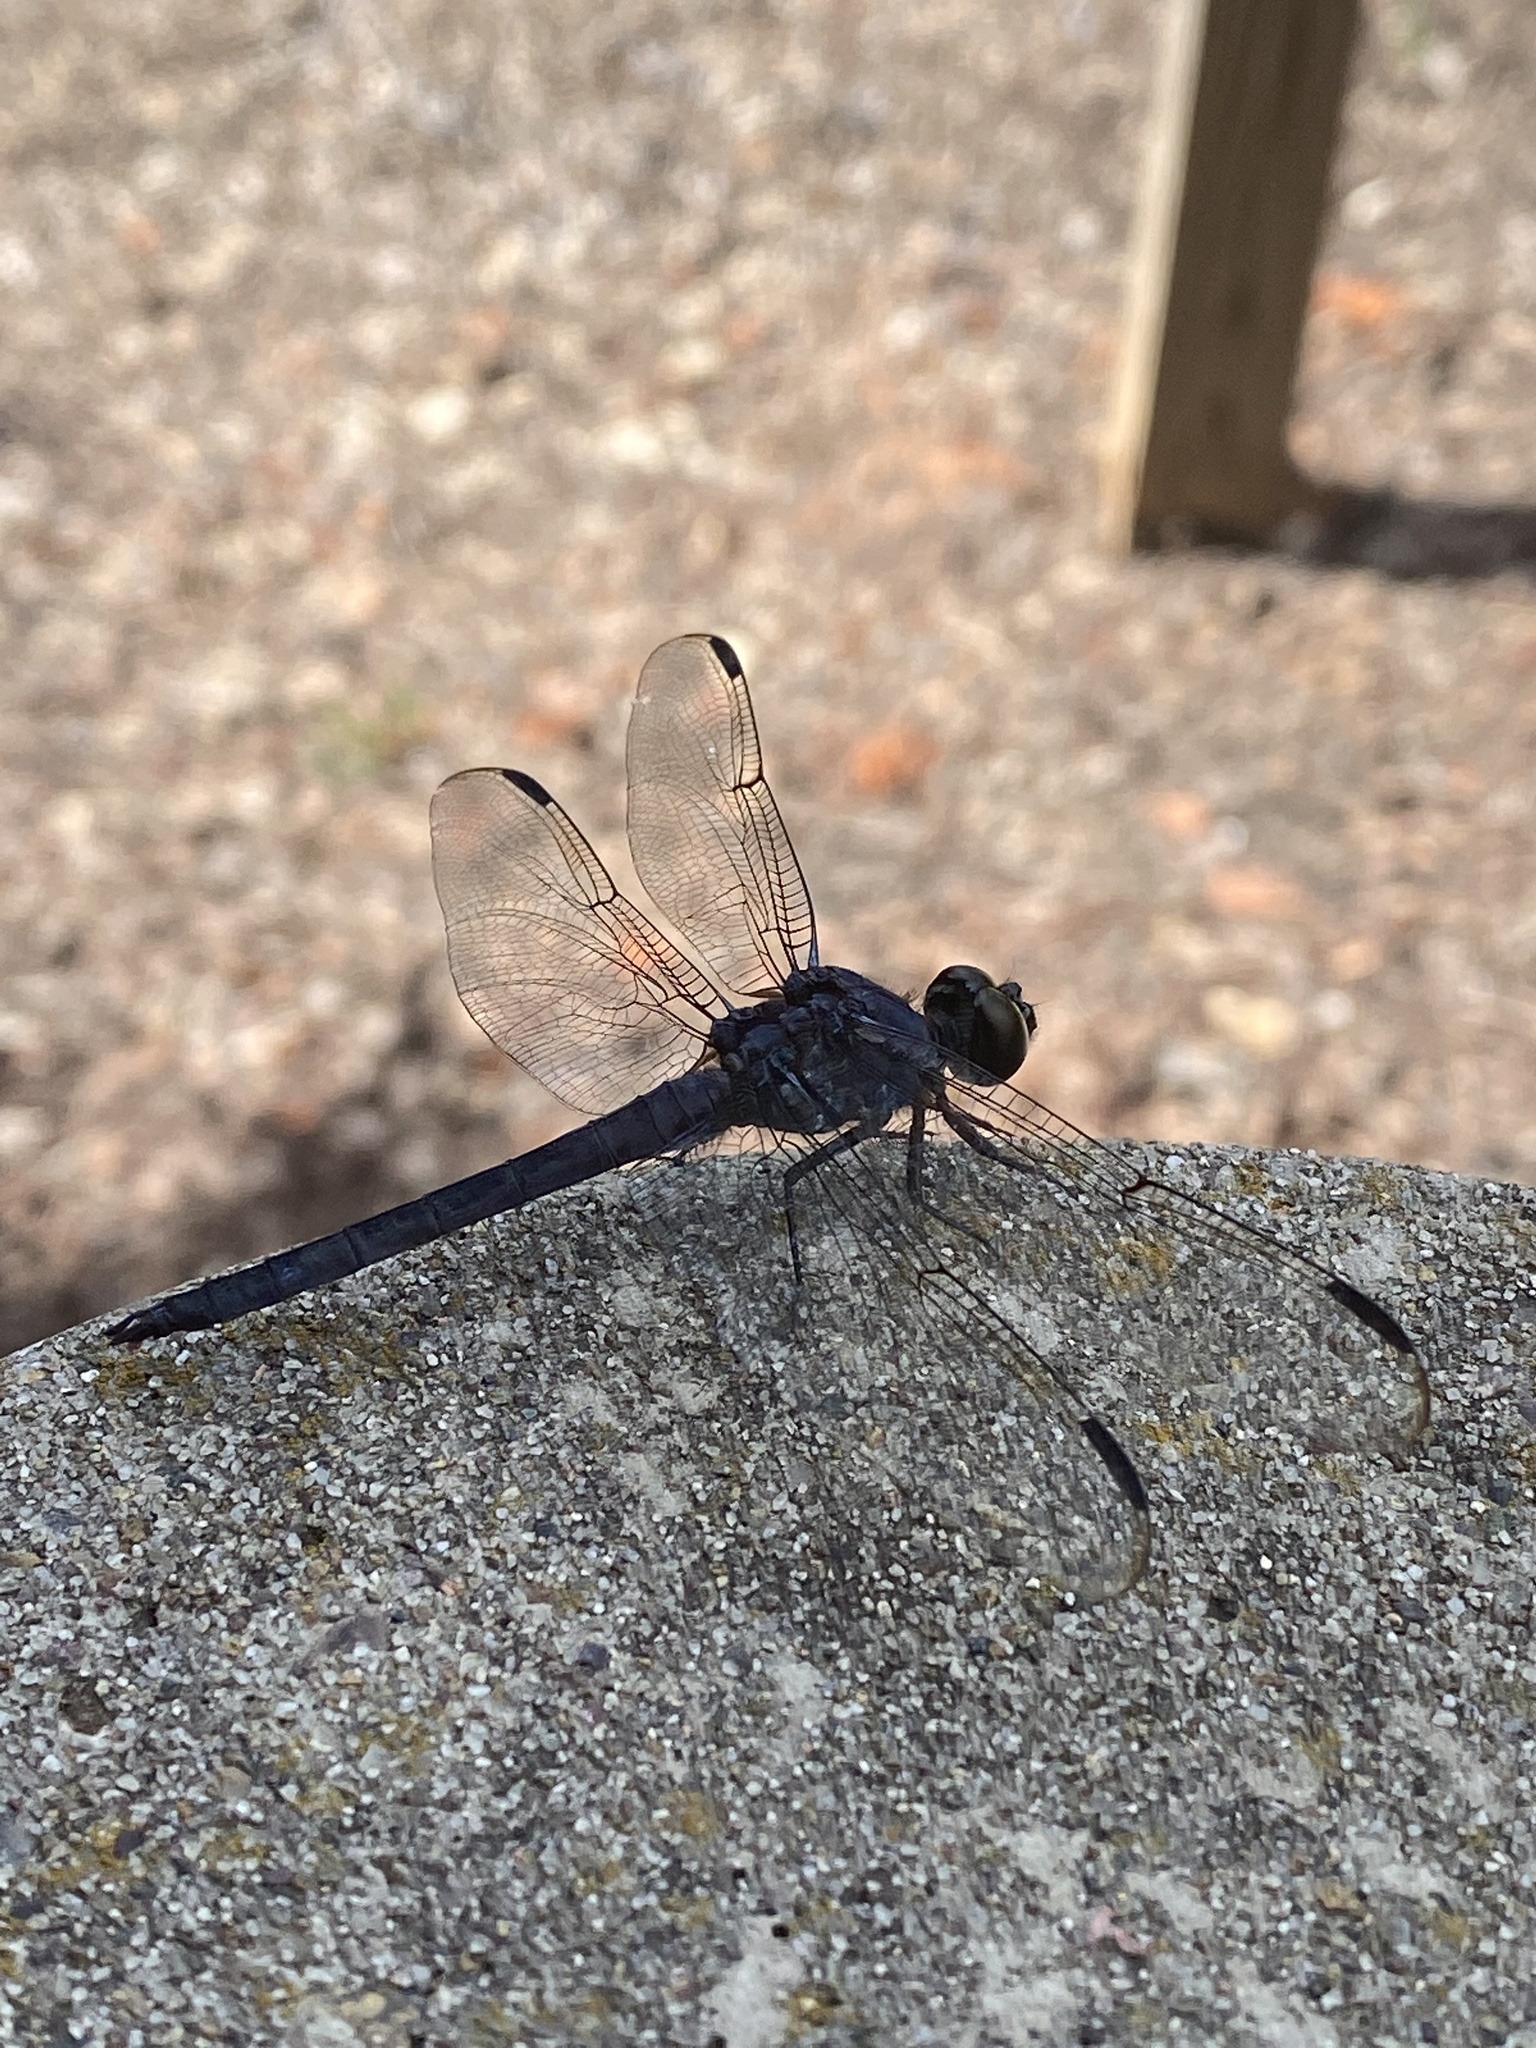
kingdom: Animalia
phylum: Arthropoda
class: Insecta
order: Odonata
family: Libellulidae
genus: Libellula
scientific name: Libellula incesta
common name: Slaty skimmer
